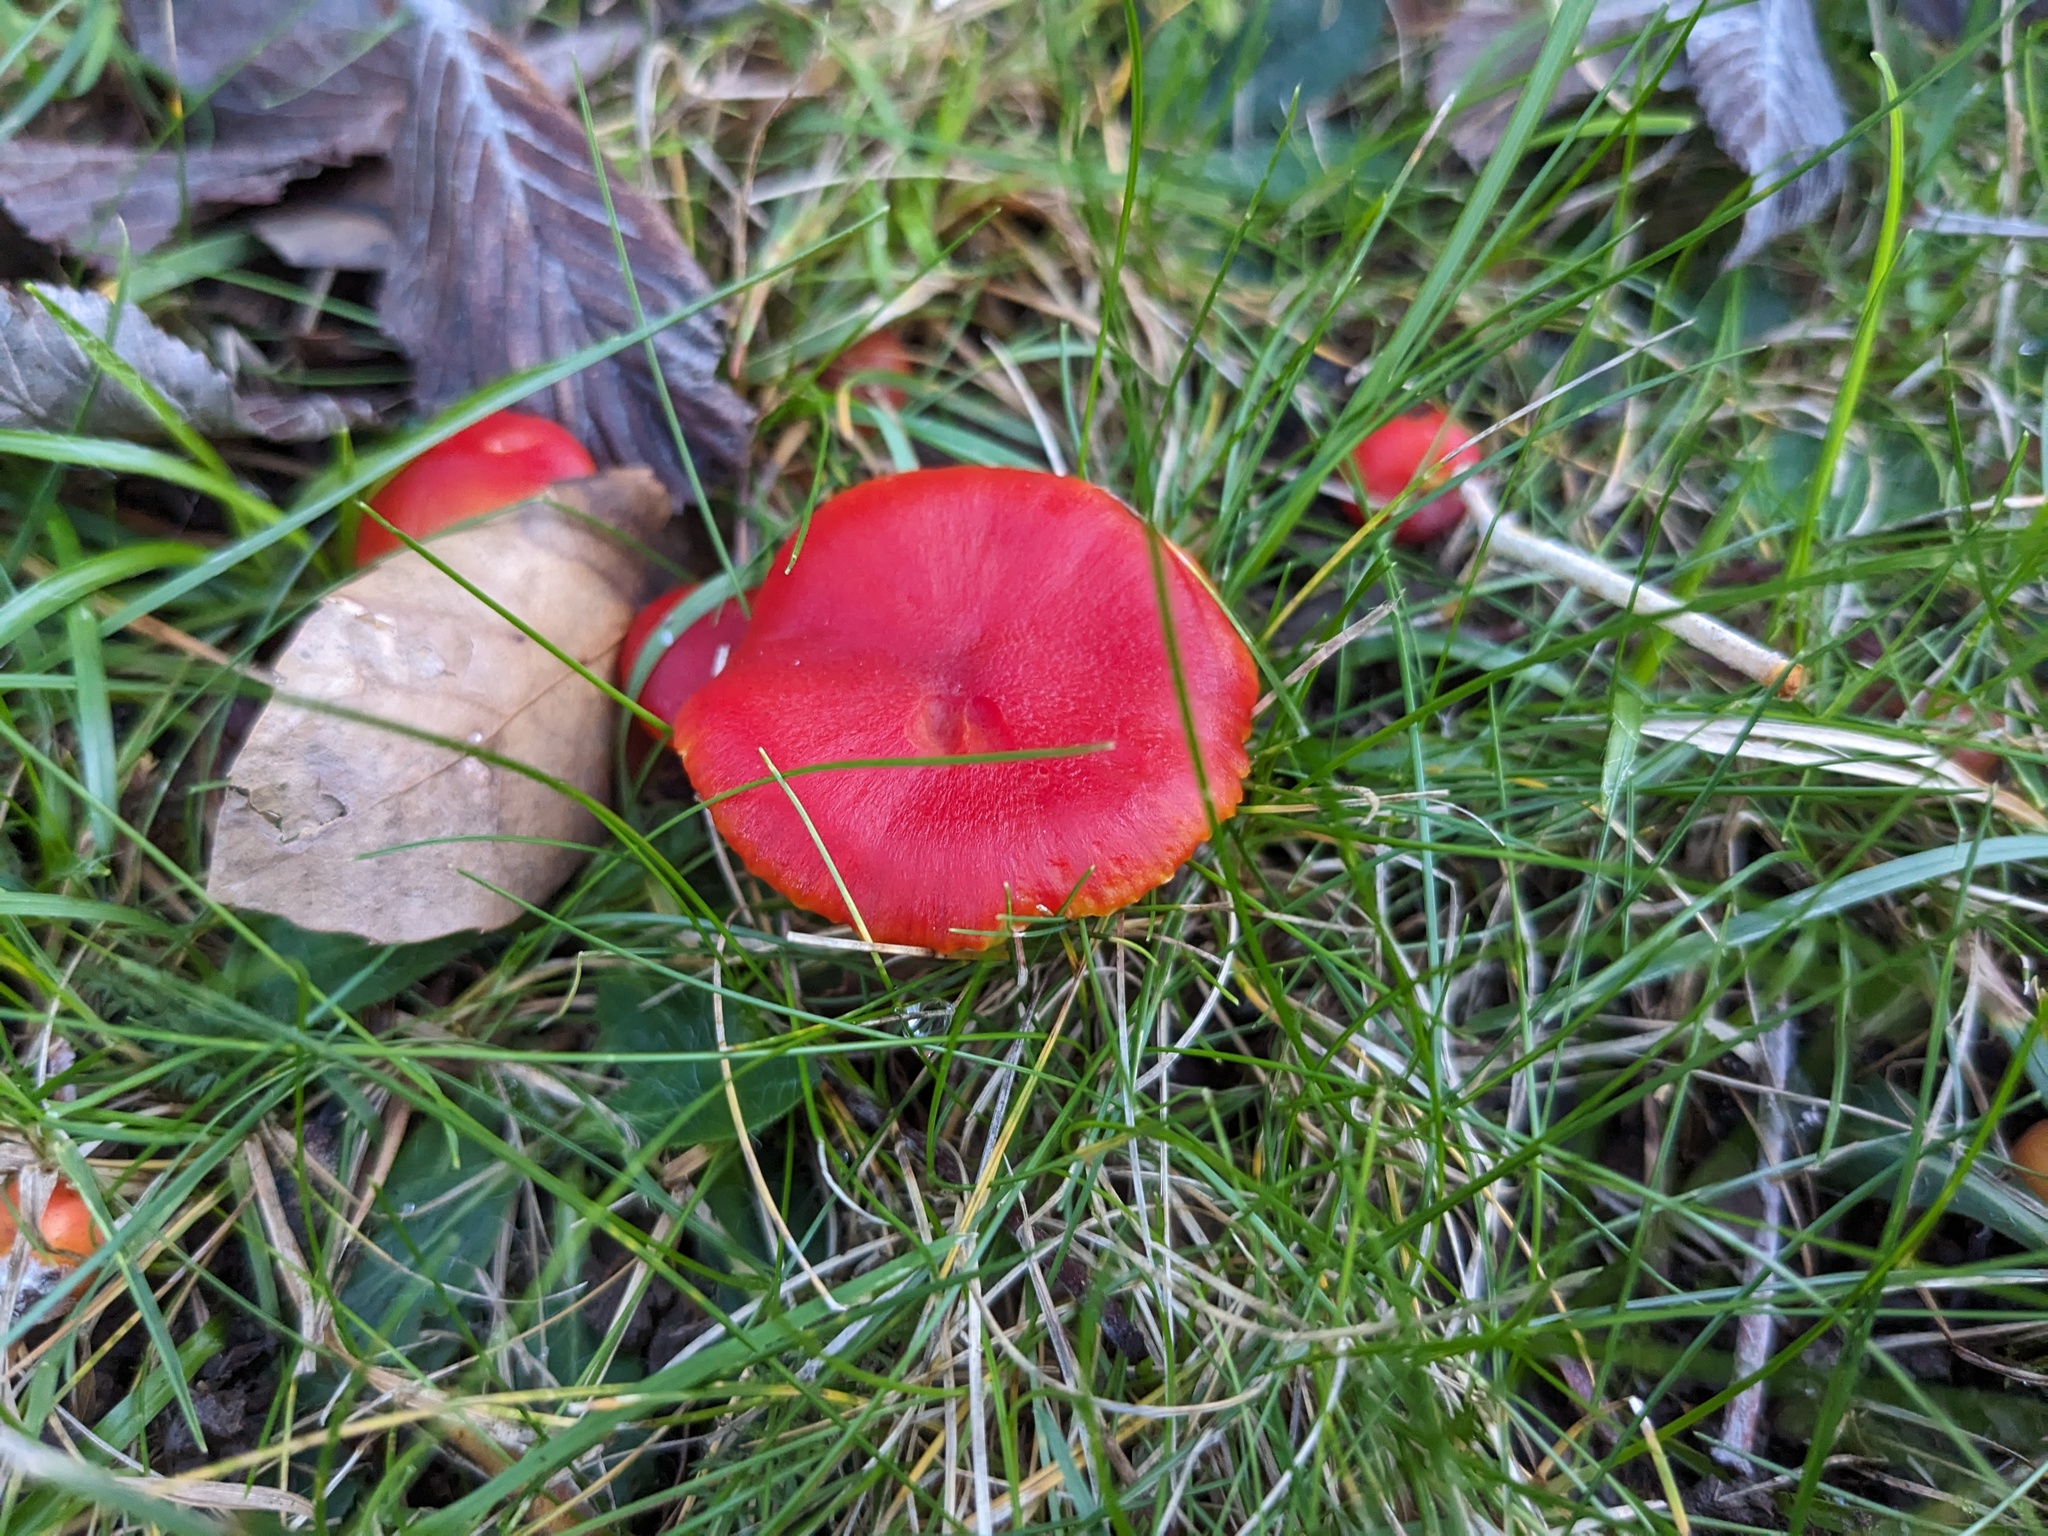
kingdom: Fungi
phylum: Basidiomycota
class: Agaricomycetes
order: Agaricales
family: Hygrophoraceae
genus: Hygrocybe
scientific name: Hygrocybe coccinea
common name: Scarlet hood
